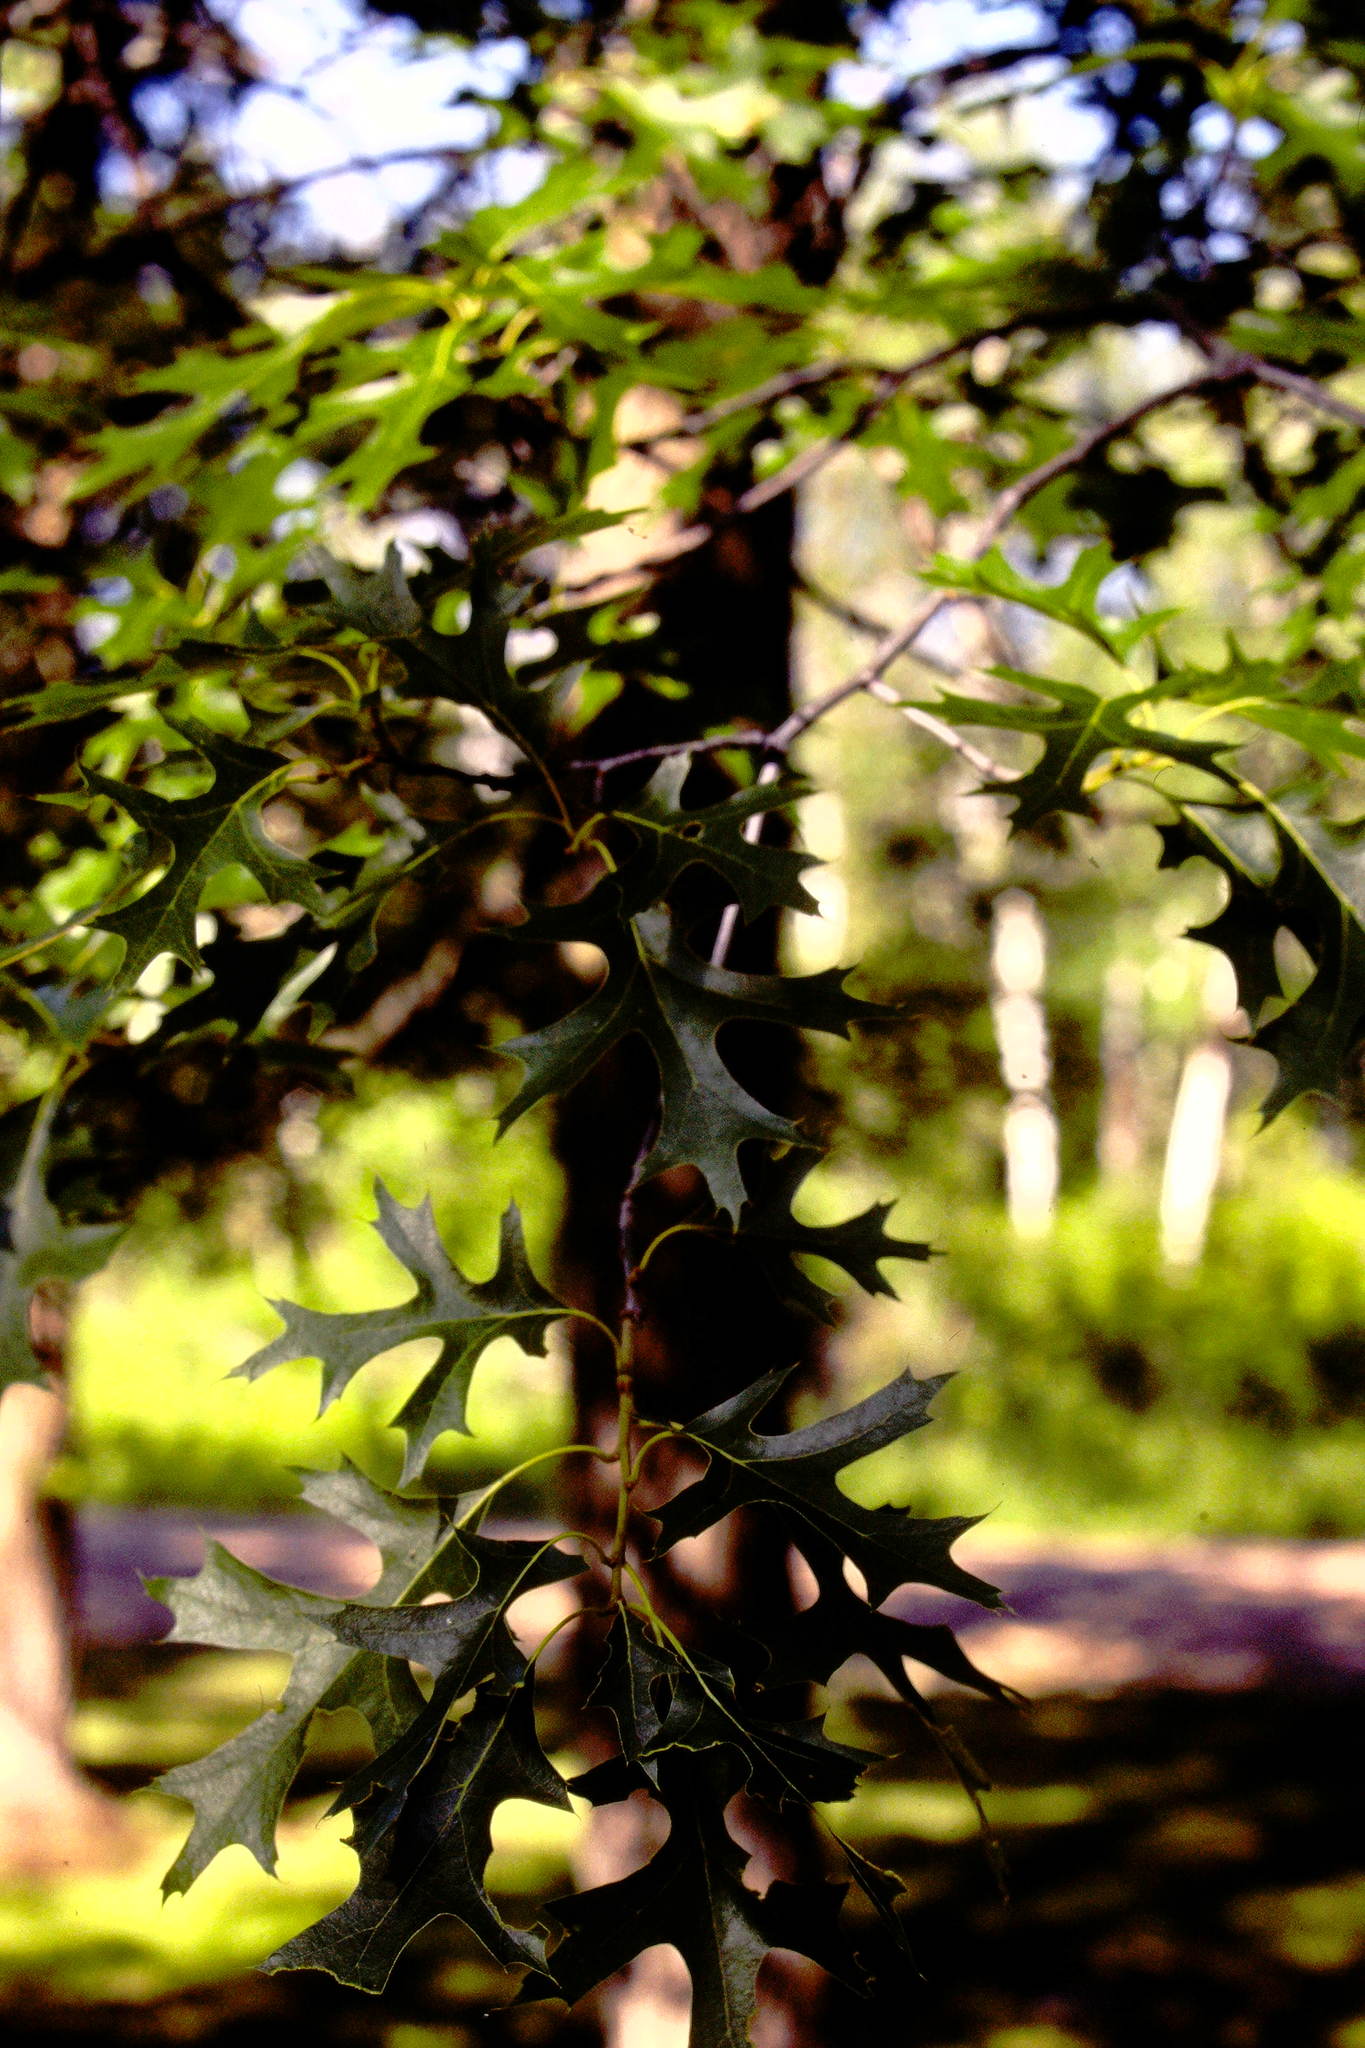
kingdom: Plantae
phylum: Tracheophyta
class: Magnoliopsida
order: Fagales
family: Fagaceae
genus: Quercus
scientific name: Quercus ellipsoidalis
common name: Hill's oak
